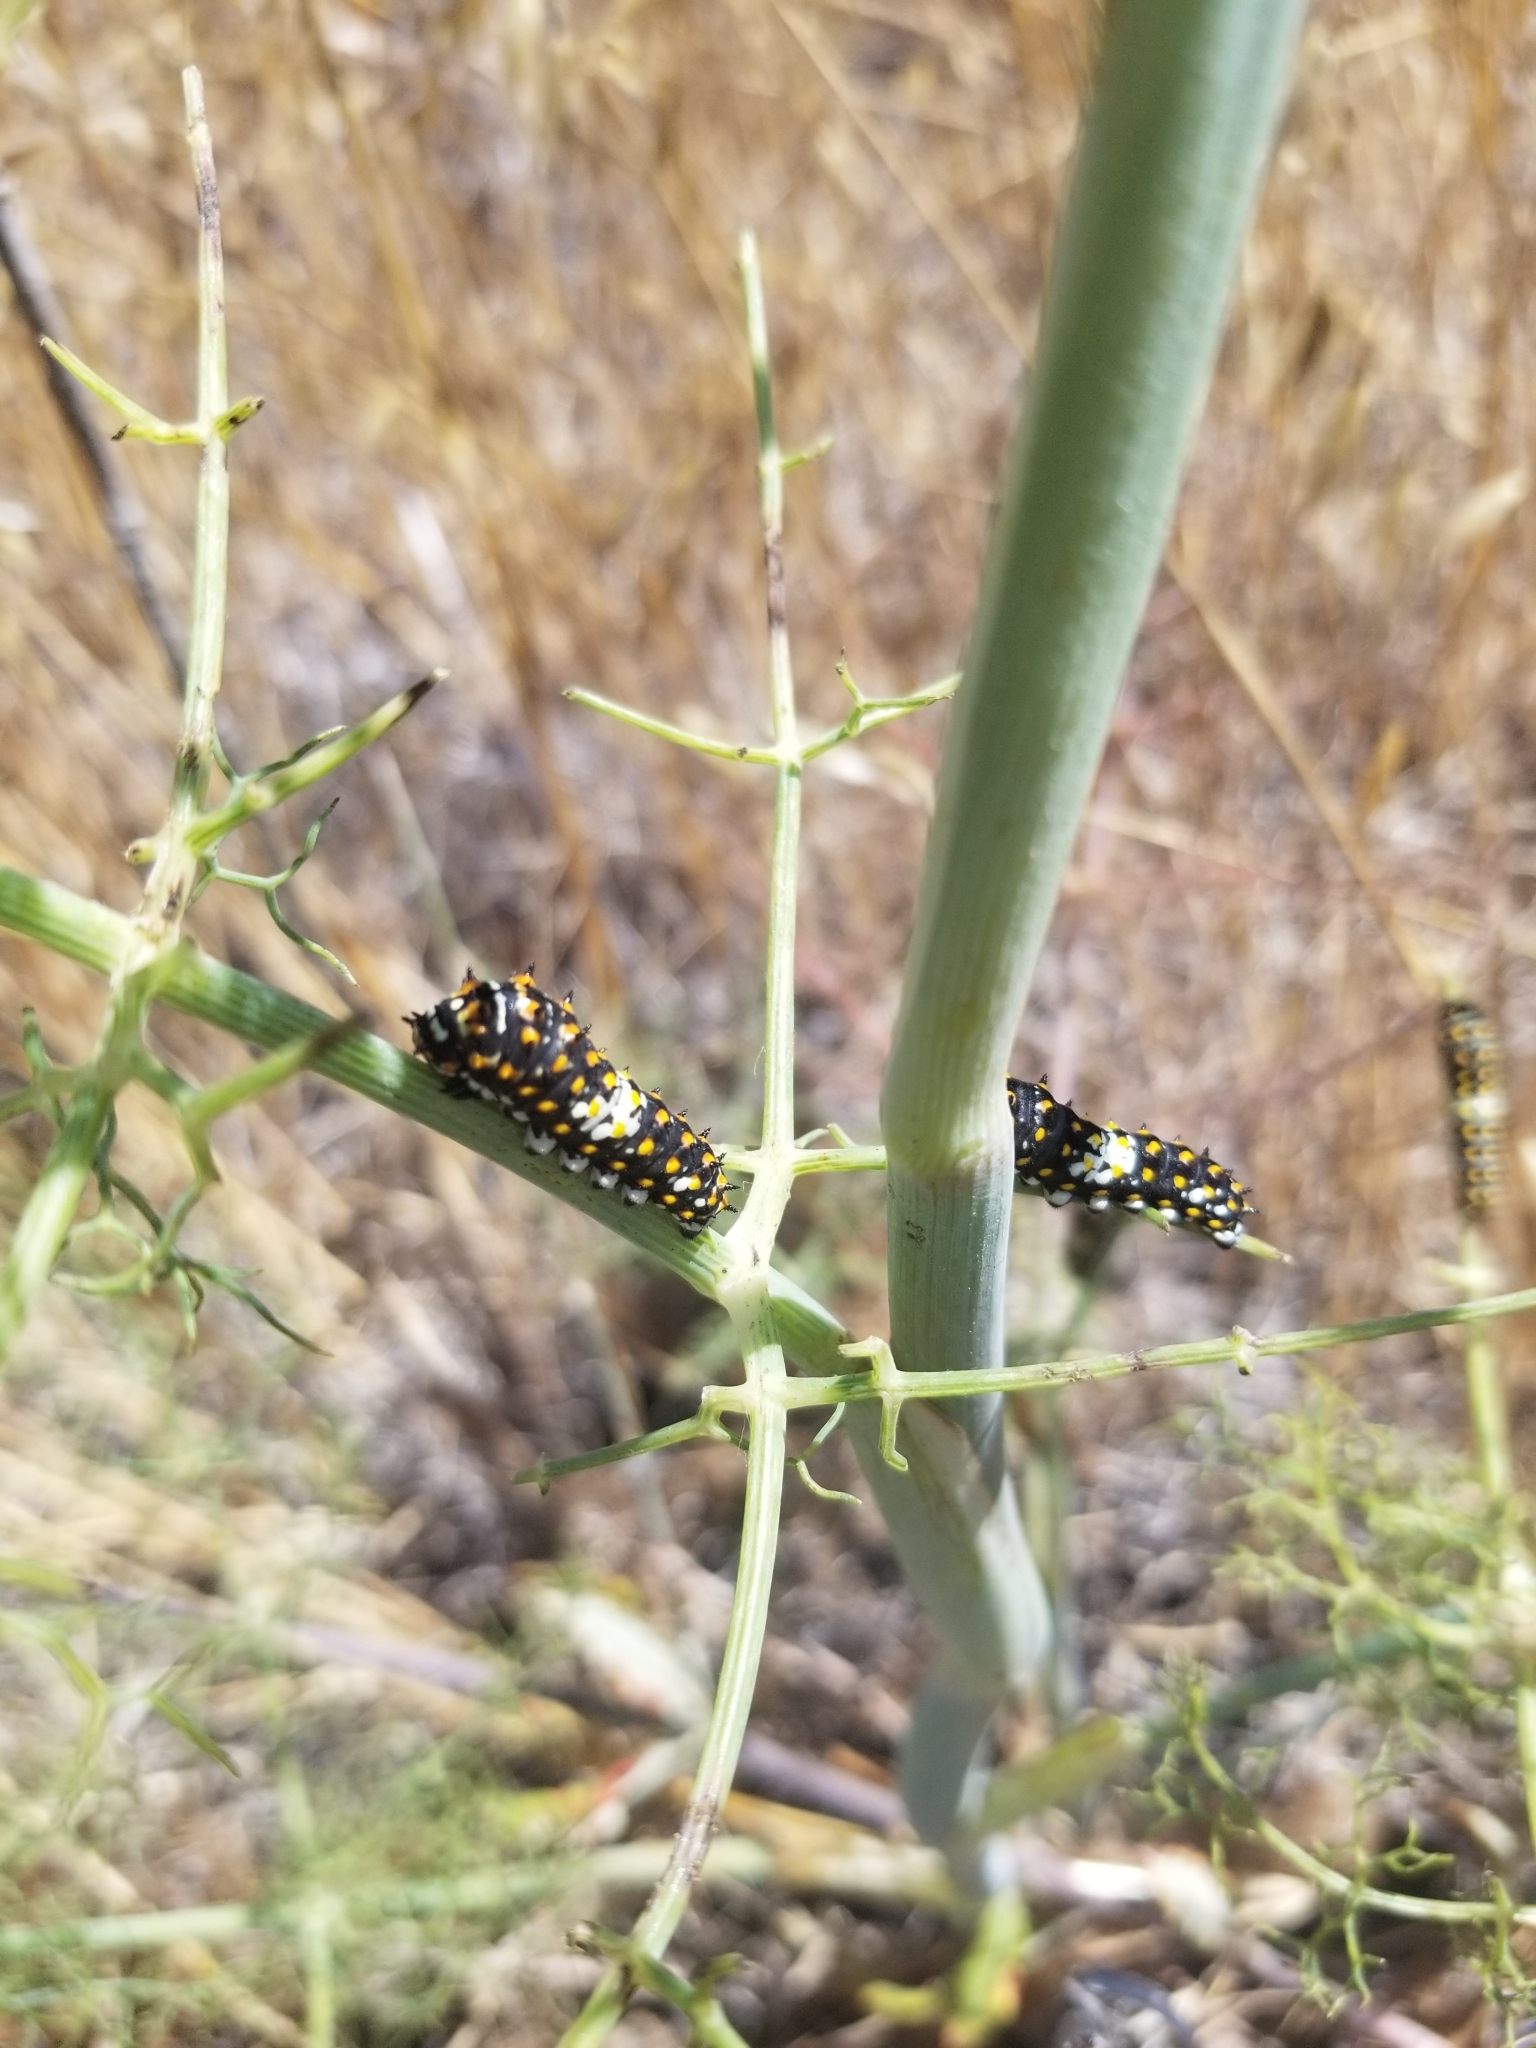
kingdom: Animalia
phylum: Arthropoda
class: Insecta
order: Lepidoptera
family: Papilionidae
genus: Papilio
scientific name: Papilio zelicaon
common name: Anise swallowtail
